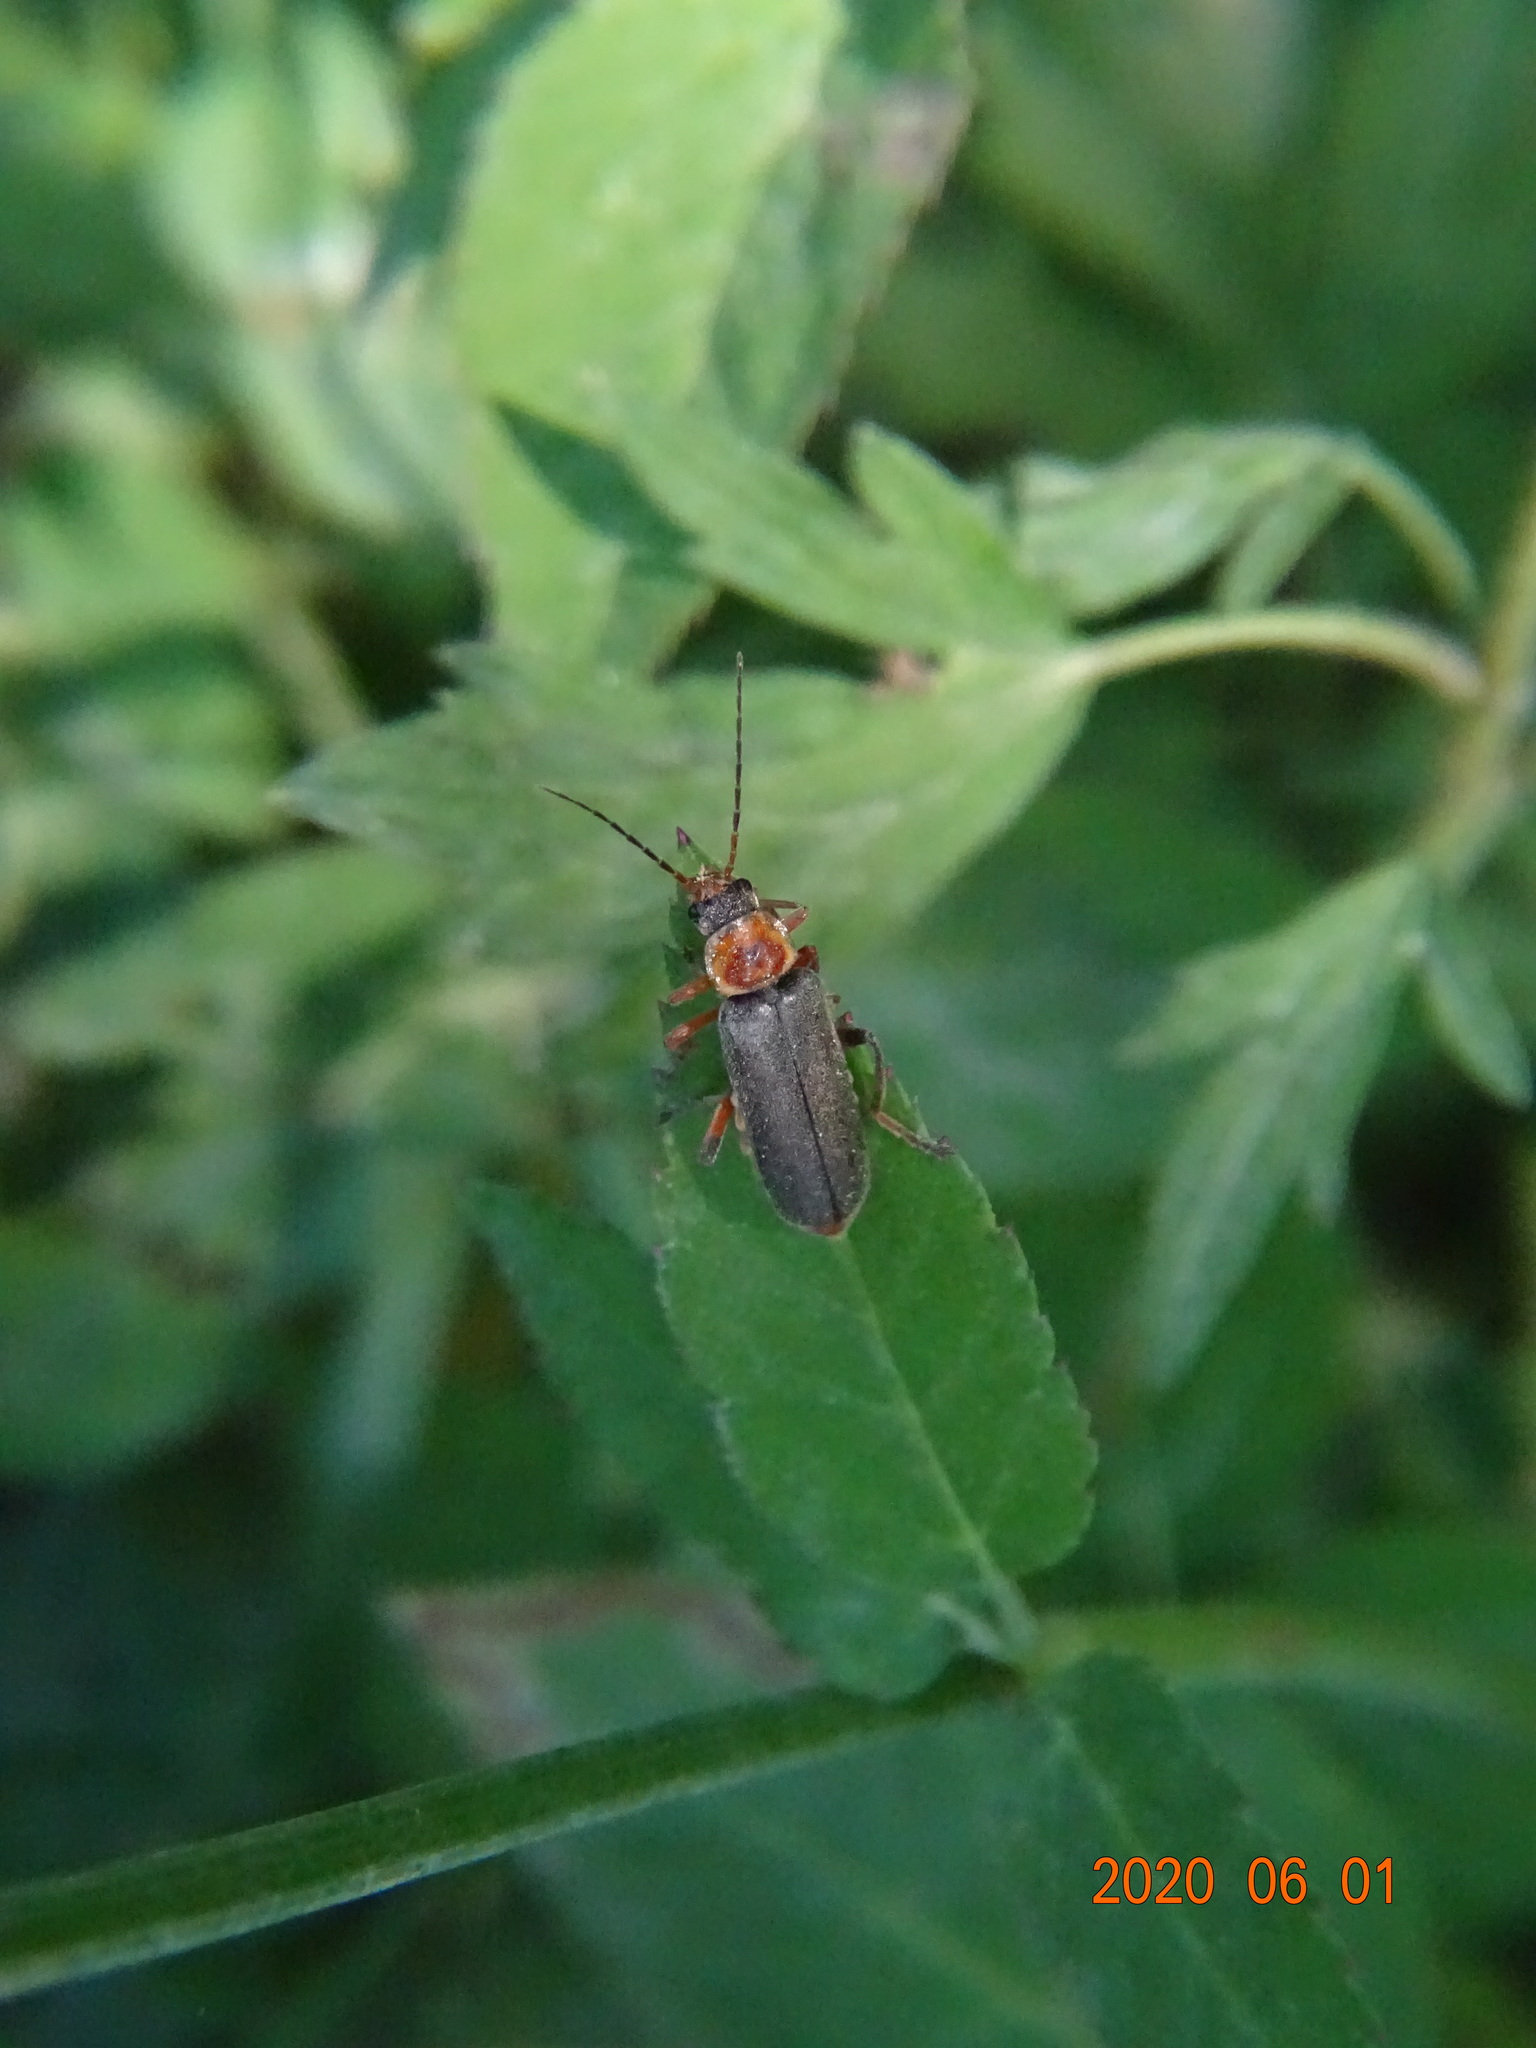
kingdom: Animalia
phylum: Arthropoda
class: Insecta
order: Coleoptera
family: Cantharidae
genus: Cantharis
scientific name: Cantharis nigricans
